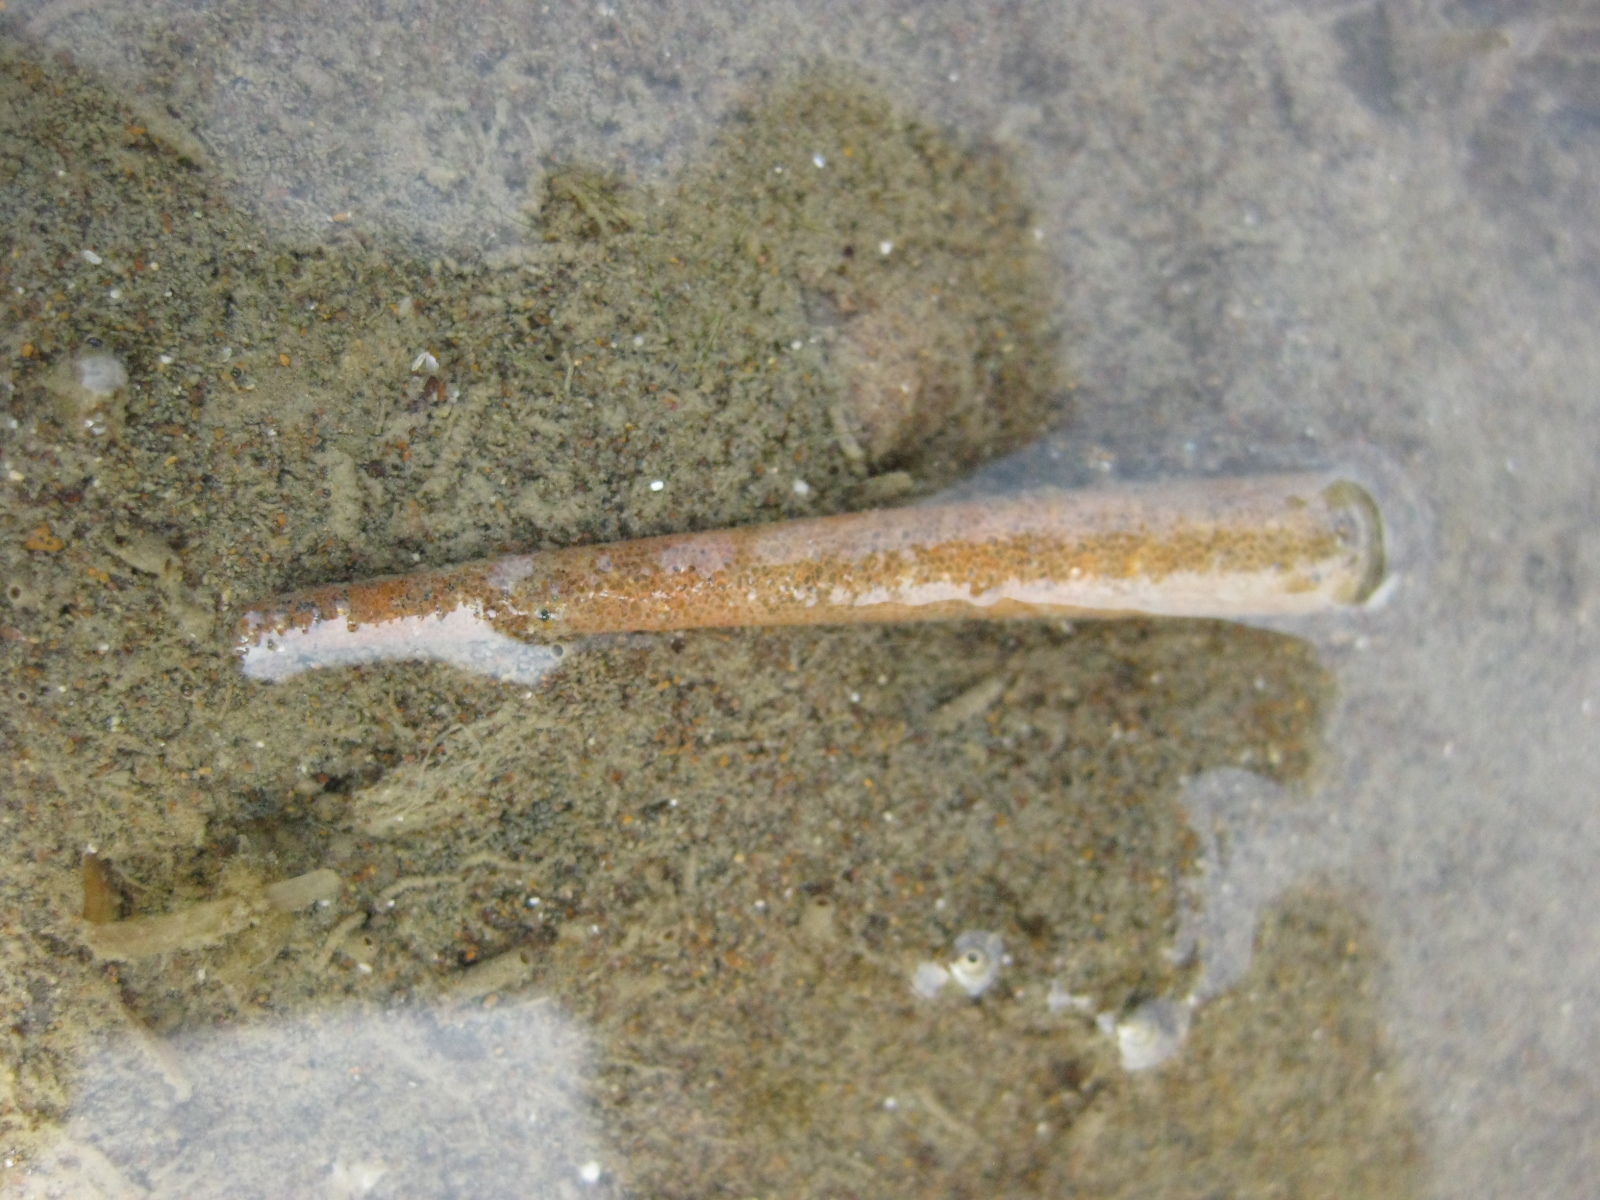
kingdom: Animalia
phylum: Annelida
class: Polychaeta
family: Pectinariidae
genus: Lagis
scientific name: Lagis australis
